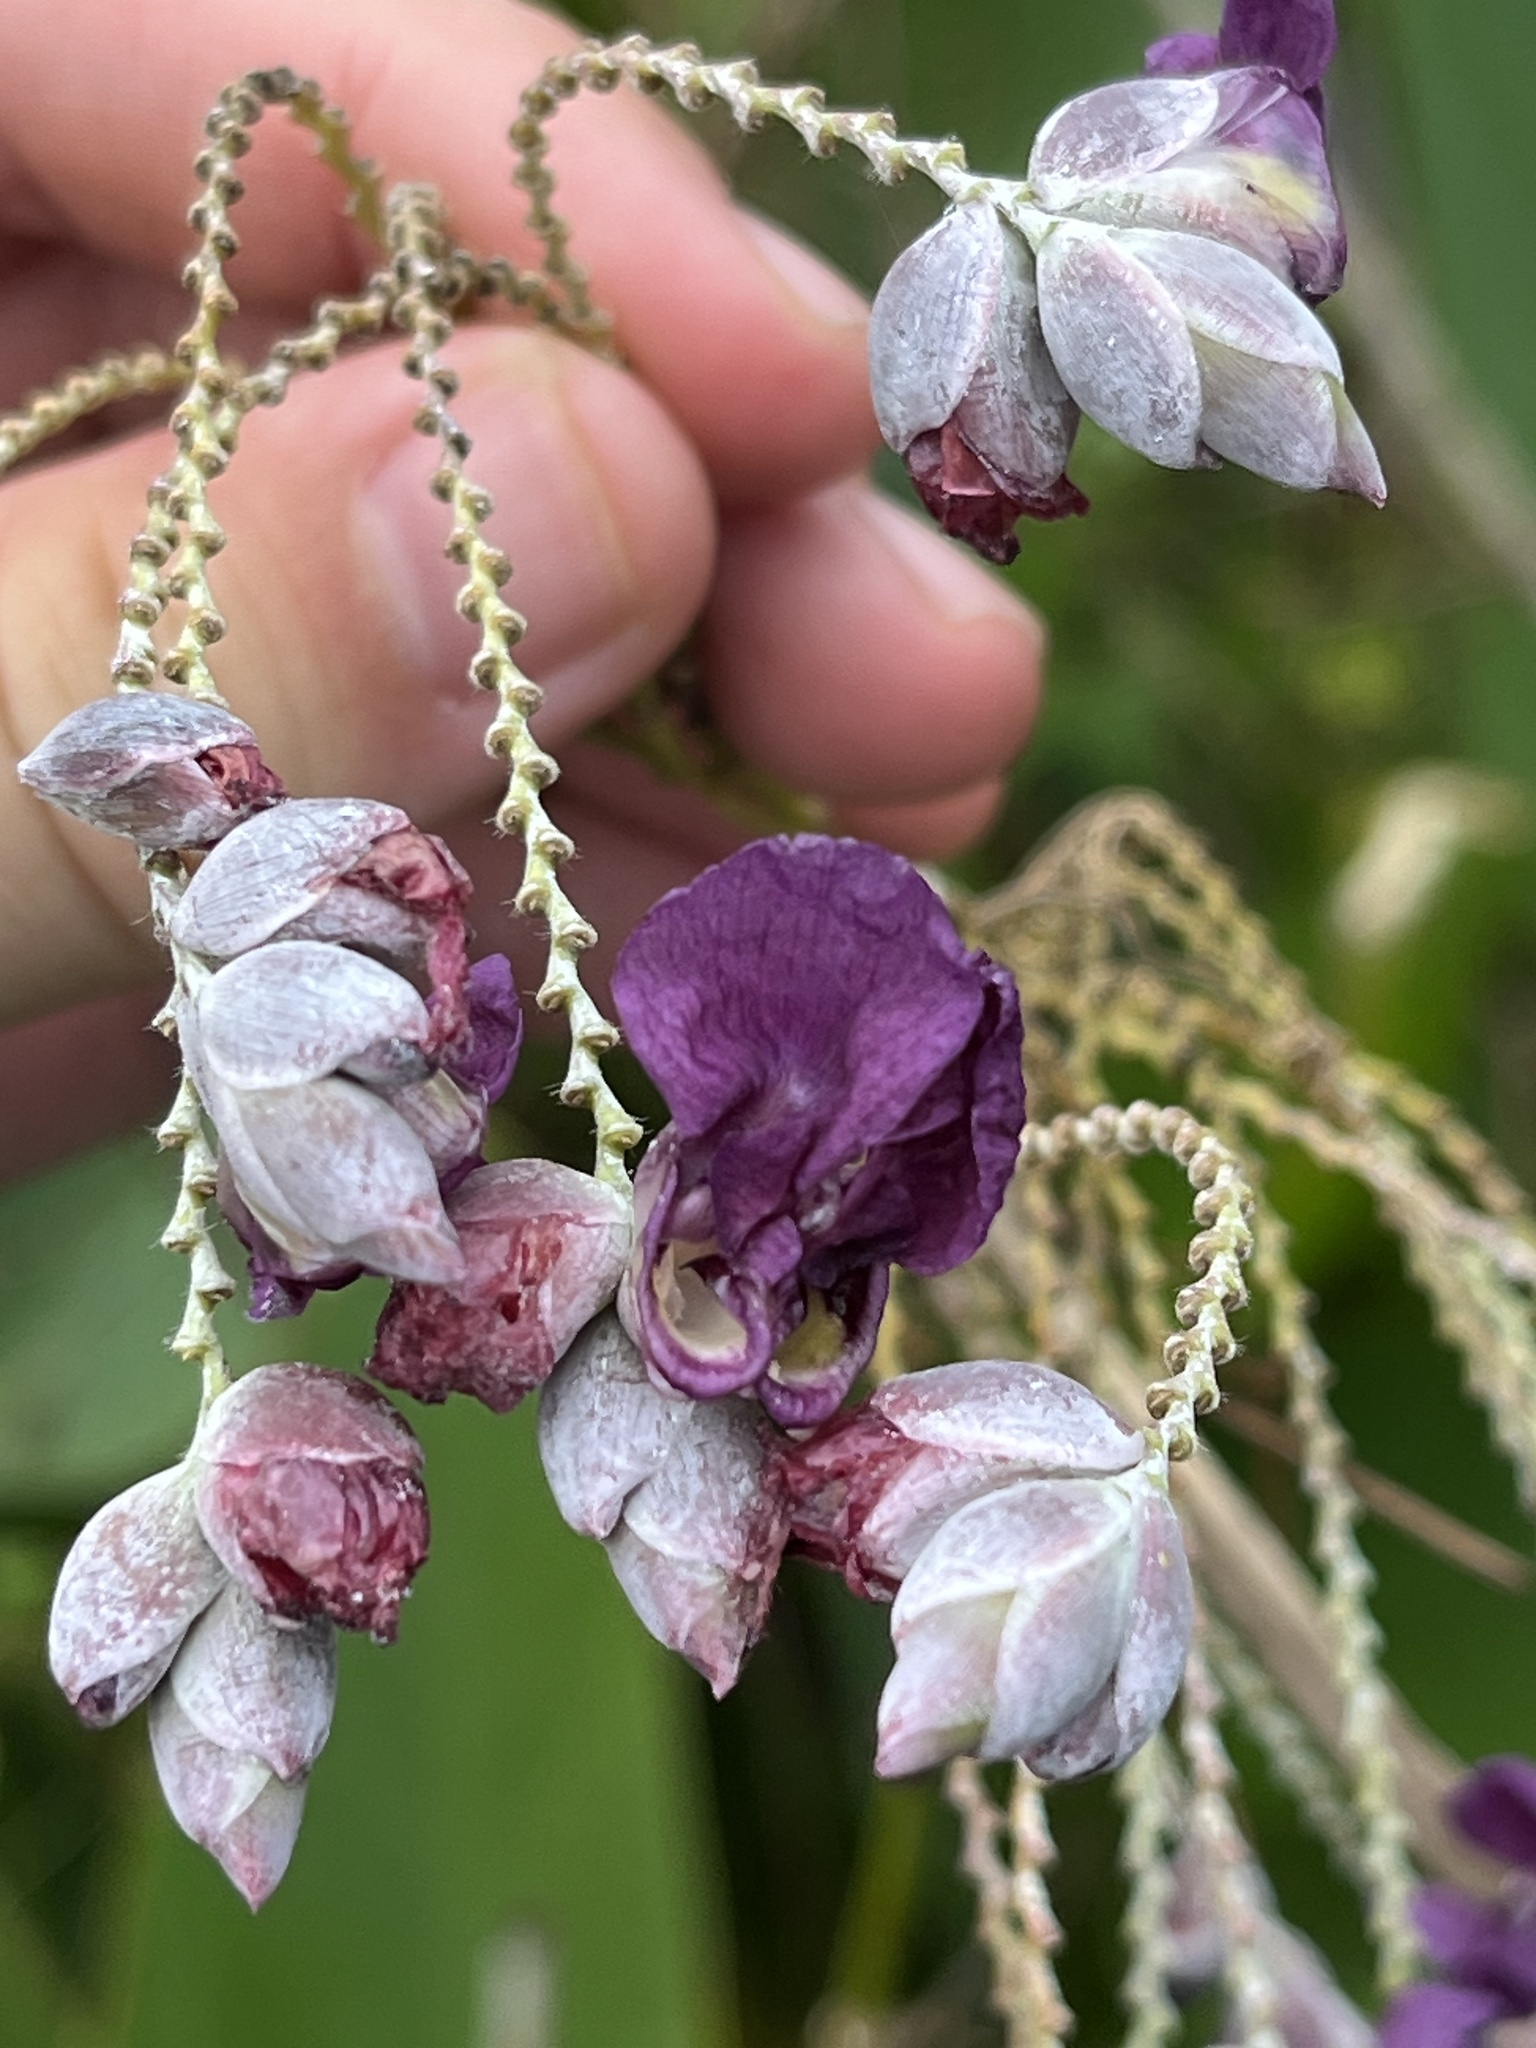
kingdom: Plantae
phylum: Tracheophyta
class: Liliopsida
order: Zingiberales
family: Marantaceae
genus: Thalia
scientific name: Thalia dealbata
